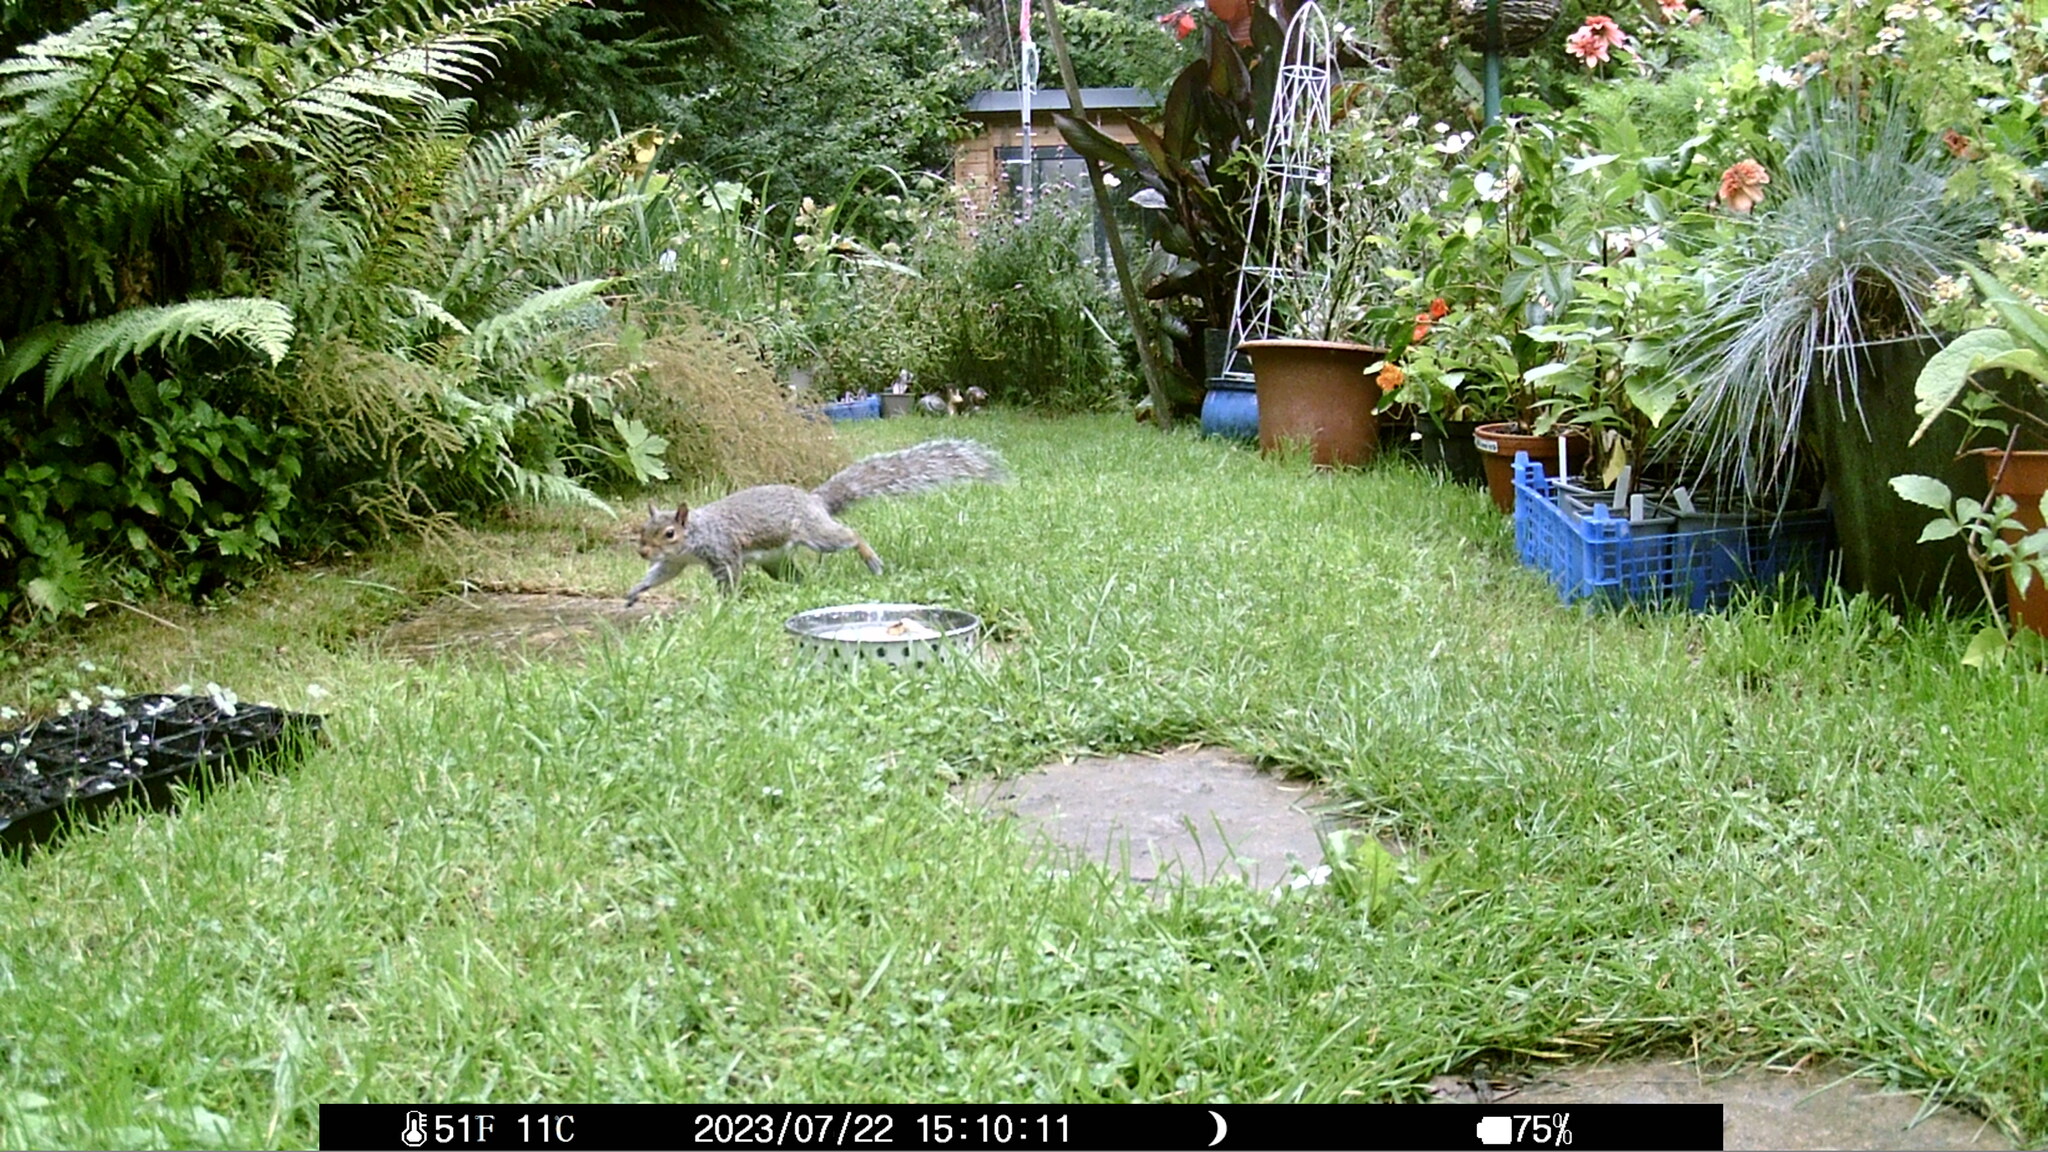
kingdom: Animalia
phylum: Chordata
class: Mammalia
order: Rodentia
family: Sciuridae
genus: Sciurus
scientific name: Sciurus carolinensis
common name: Eastern gray squirrel
